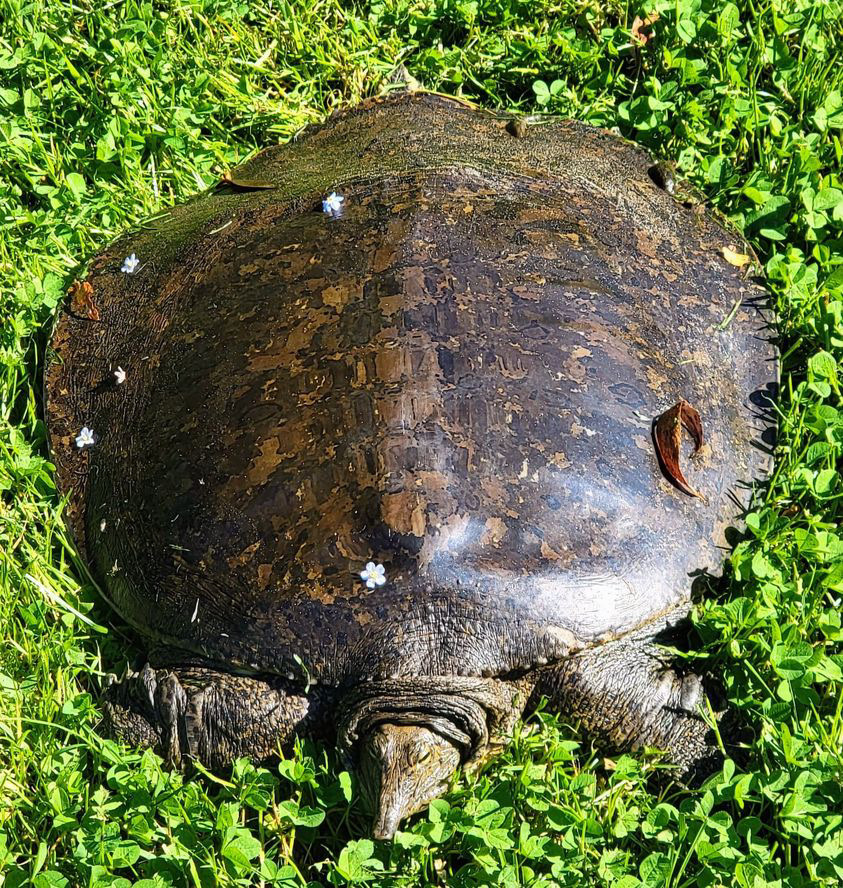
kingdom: Animalia
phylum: Chordata
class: Testudines
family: Trionychidae
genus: Apalone
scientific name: Apalone spinifera
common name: Spiny softshell turtle
